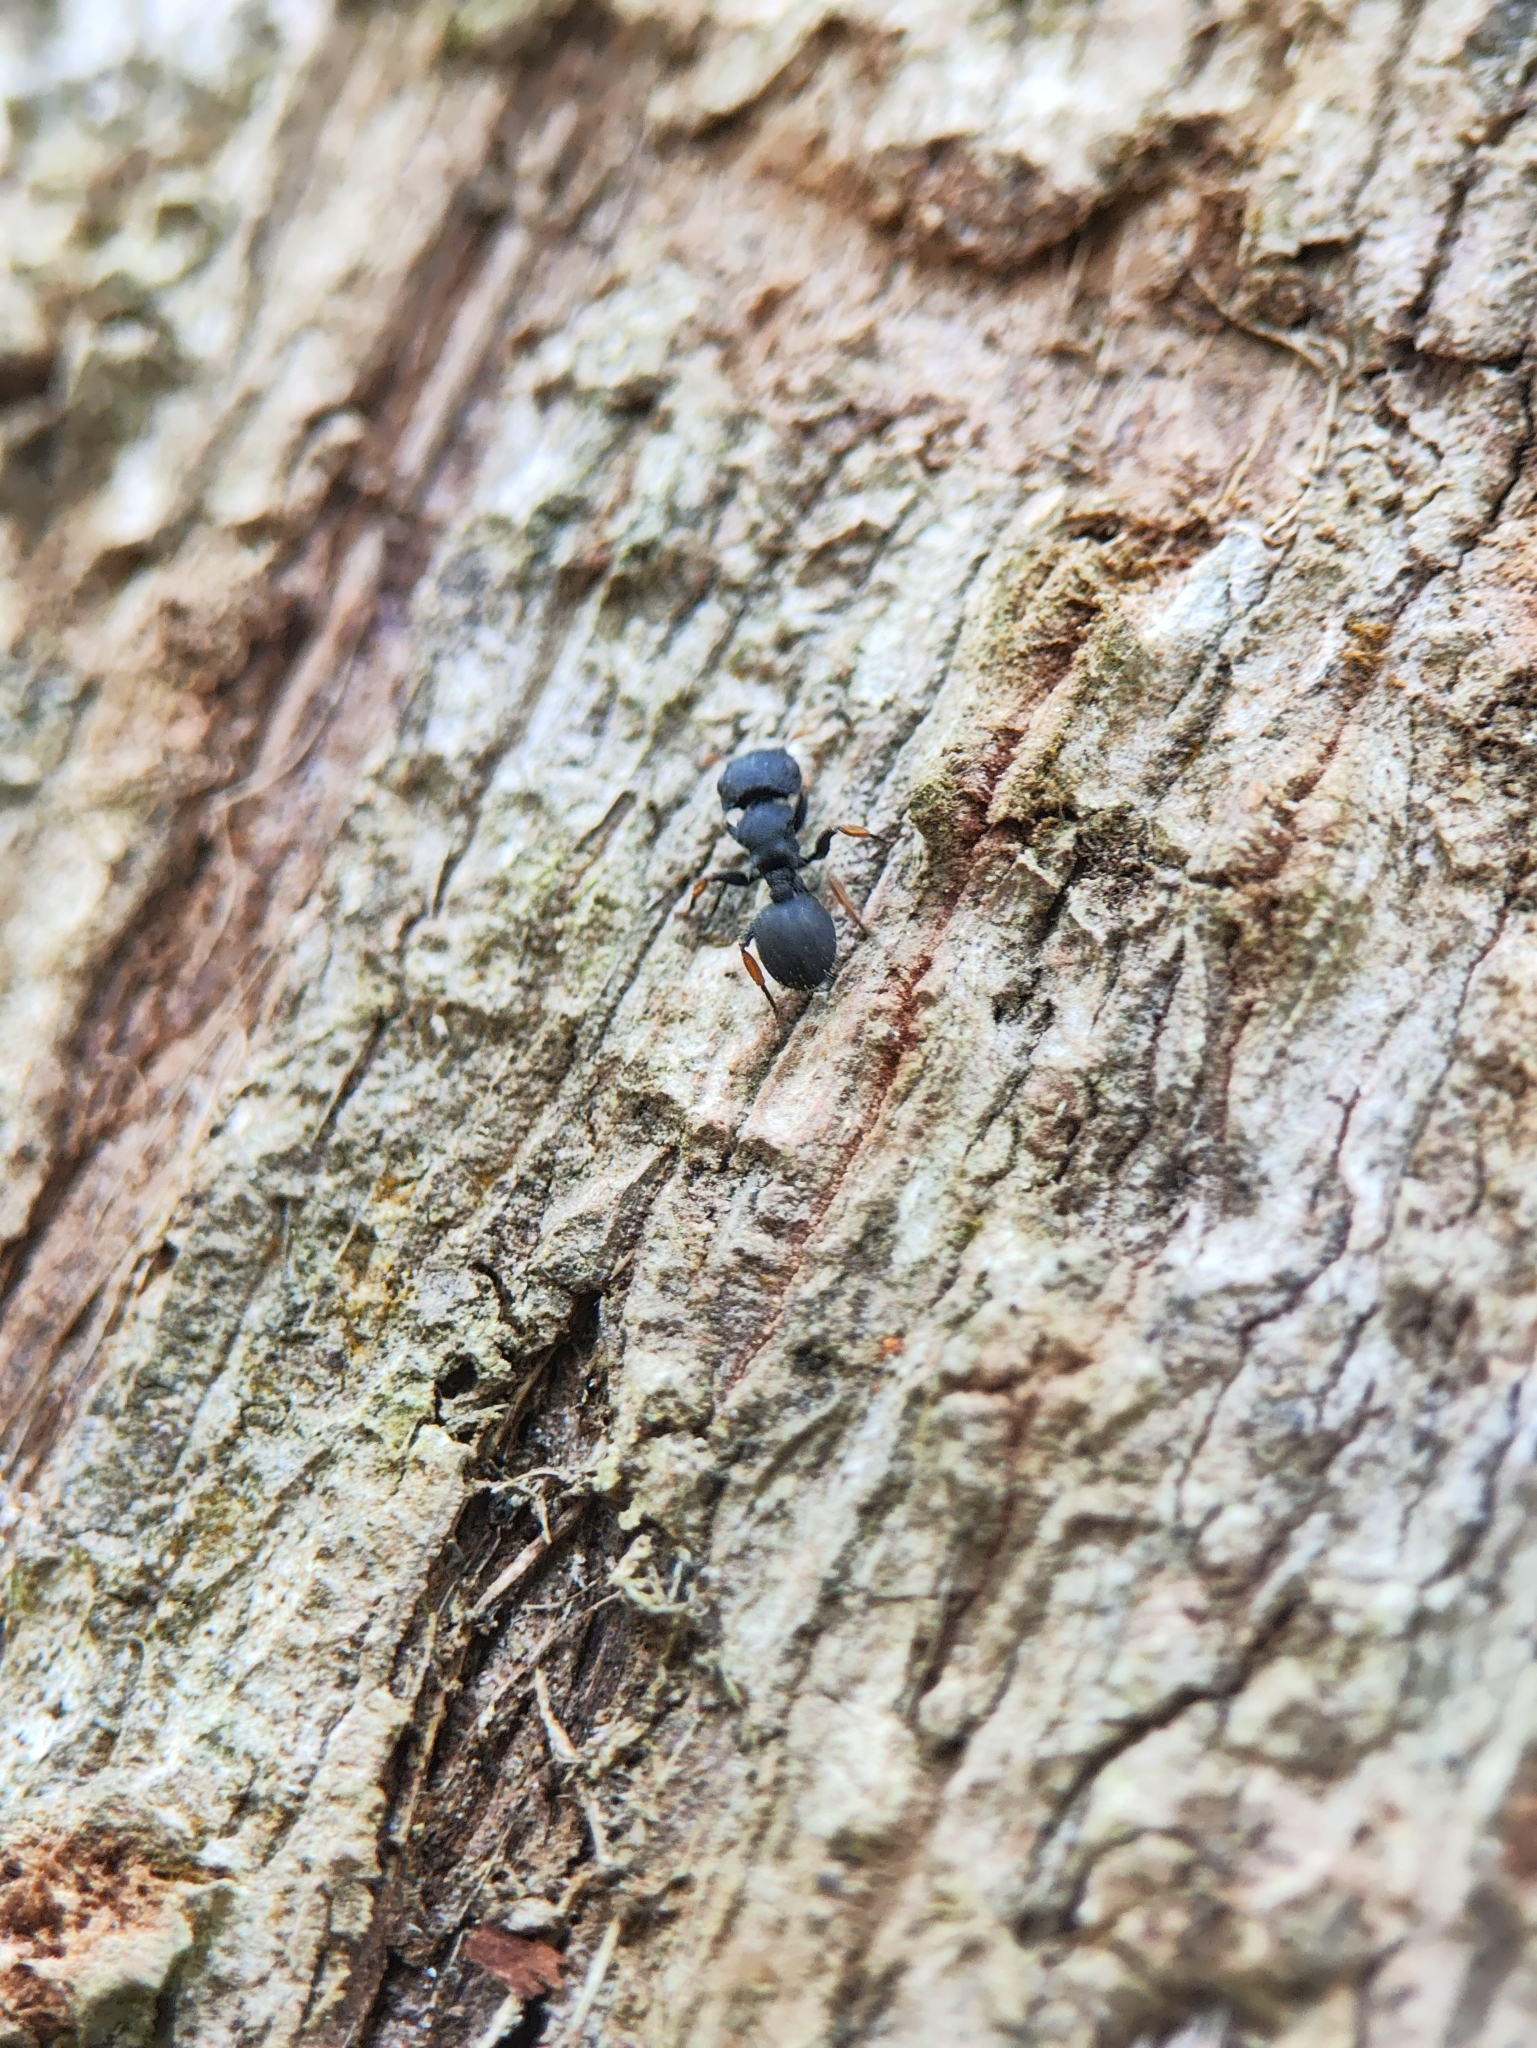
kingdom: Animalia
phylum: Arthropoda
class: Insecta
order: Hymenoptera
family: Formicidae
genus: Cataulacus
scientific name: Cataulacus taprobanae
